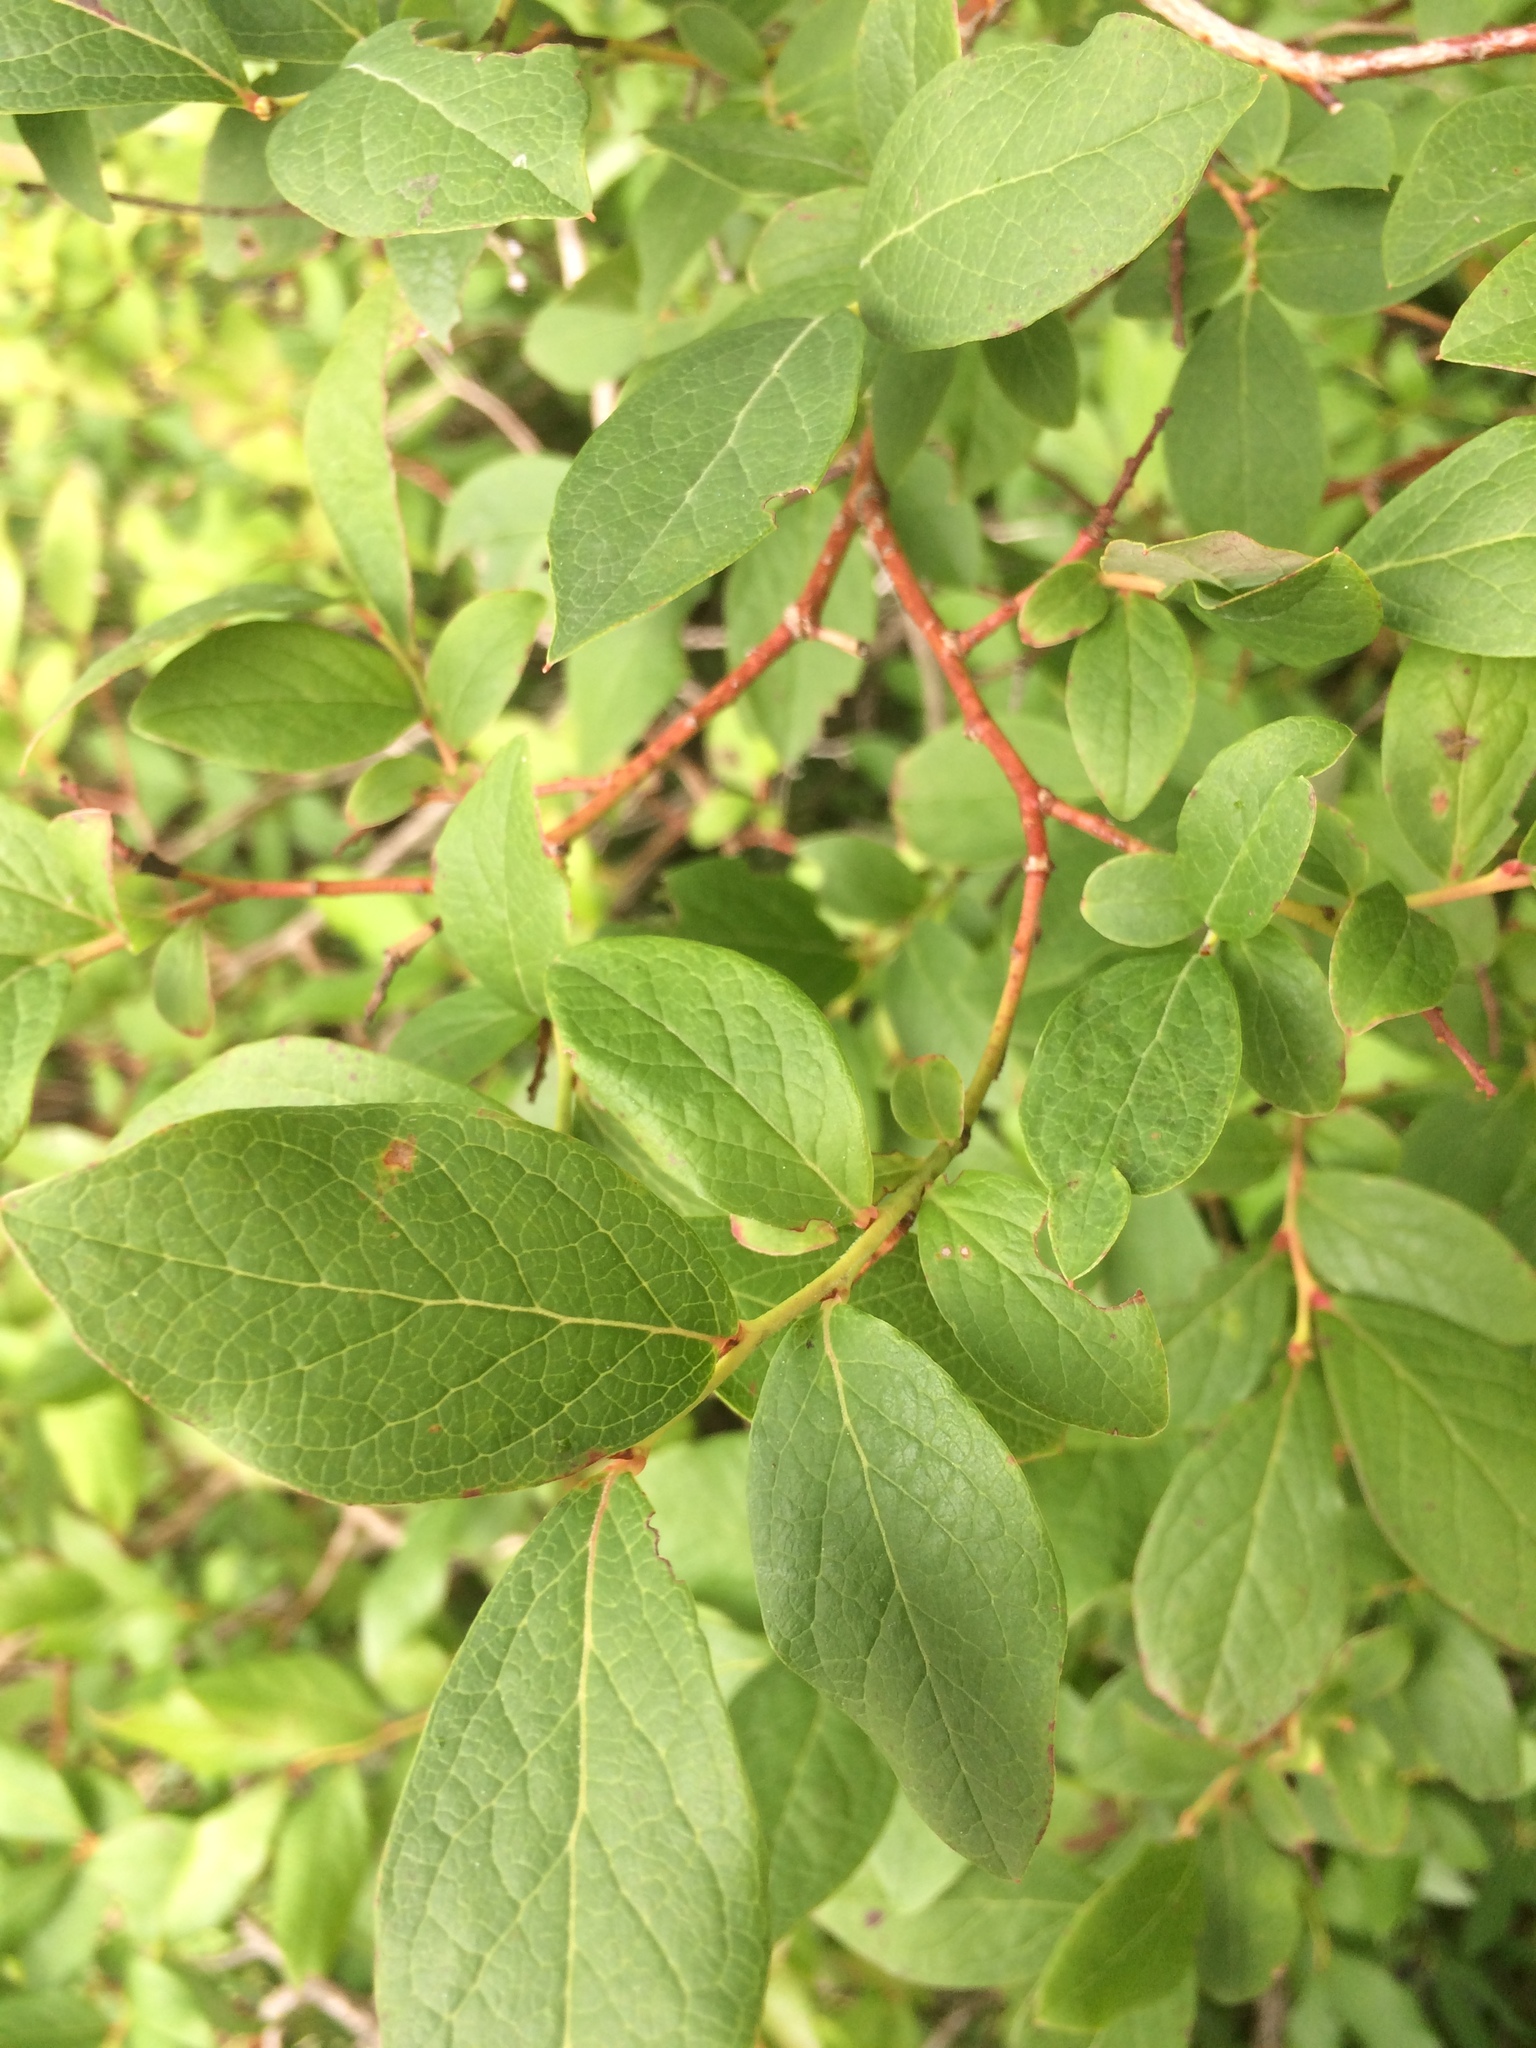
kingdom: Plantae
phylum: Tracheophyta
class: Magnoliopsida
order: Ericales
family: Ericaceae
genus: Vaccinium
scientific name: Vaccinium corymbosum
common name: Blueberry
